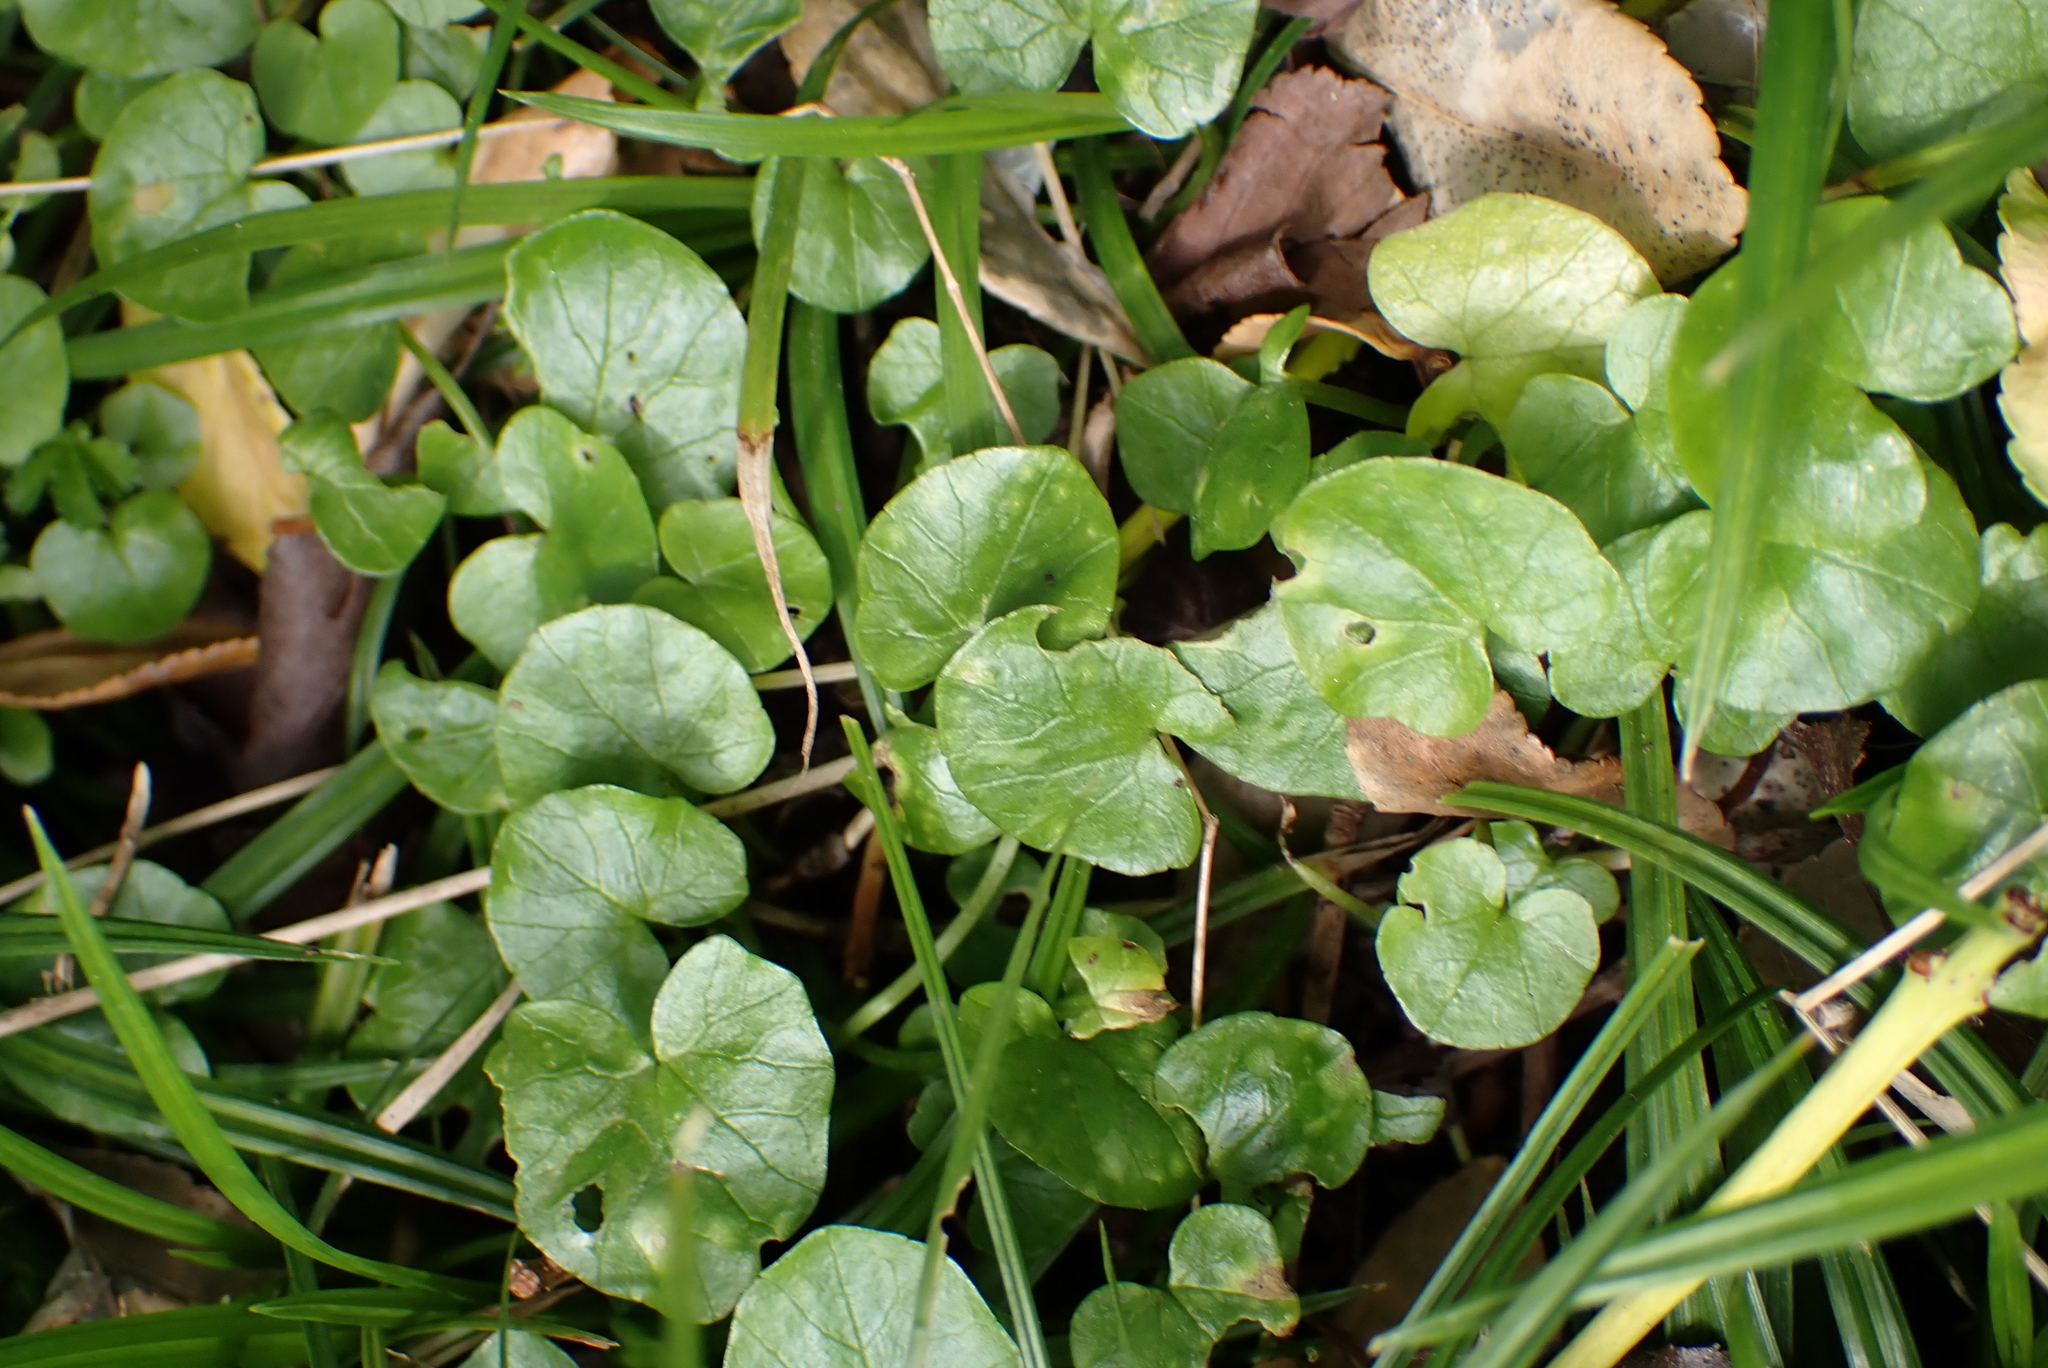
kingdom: Plantae
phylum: Tracheophyta
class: Magnoliopsida
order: Ranunculales
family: Ranunculaceae
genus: Ficaria
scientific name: Ficaria verna
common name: Lesser celandine
